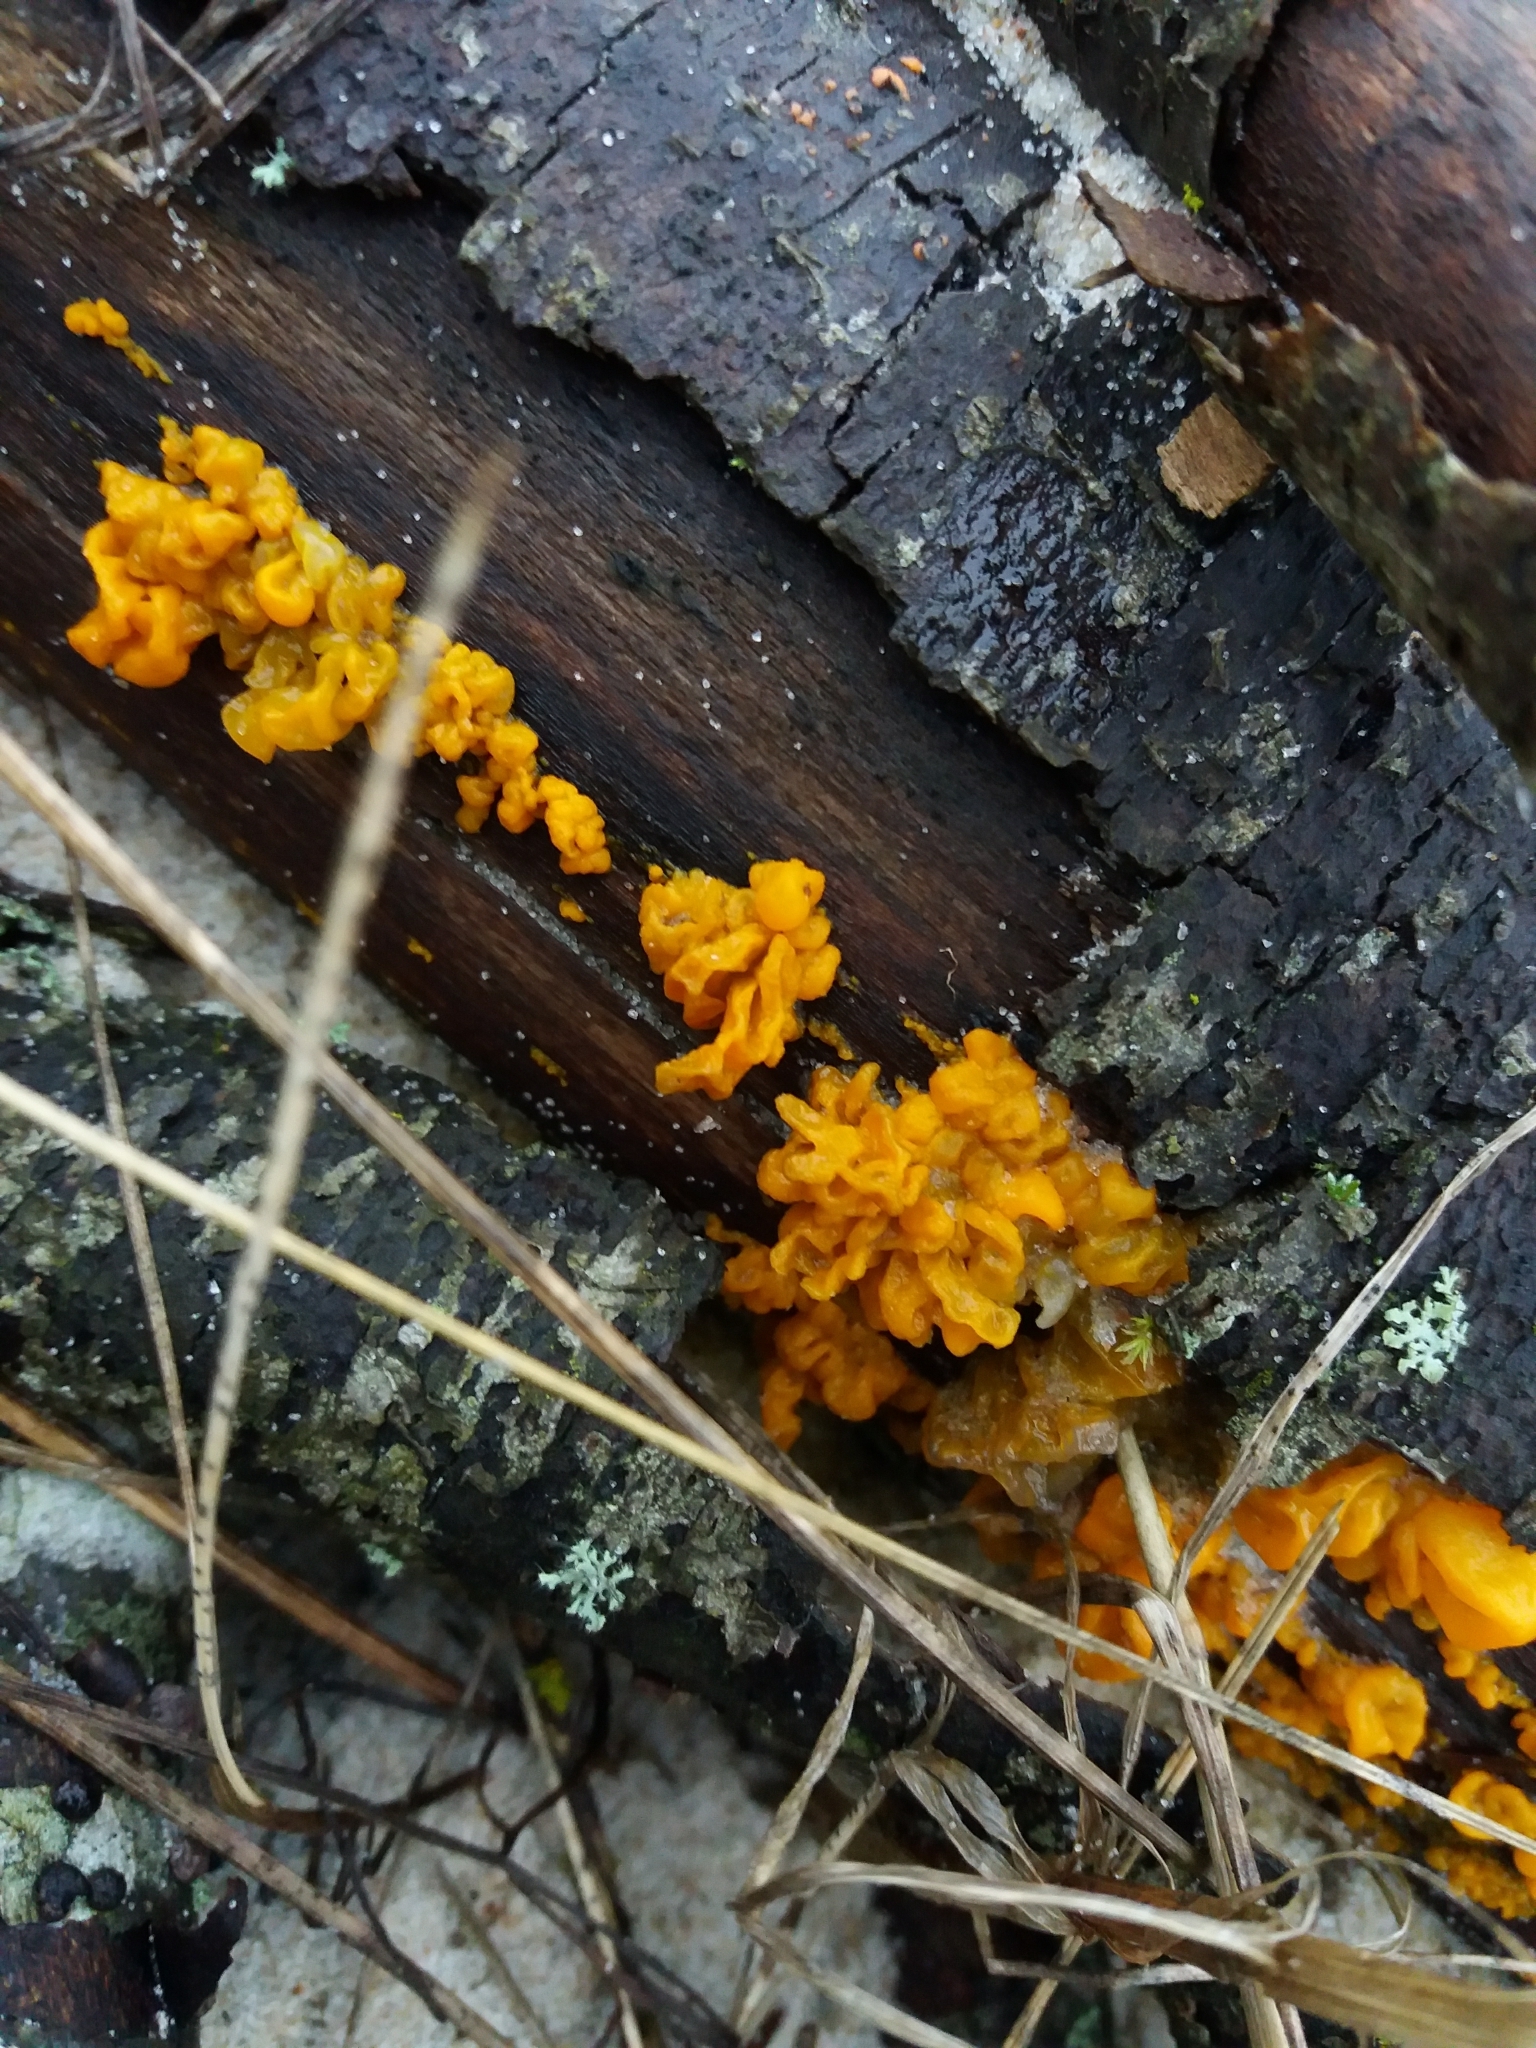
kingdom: Fungi
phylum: Basidiomycota
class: Tremellomycetes
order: Tremellales
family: Tremellaceae
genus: Tremella
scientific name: Tremella mesenterica
